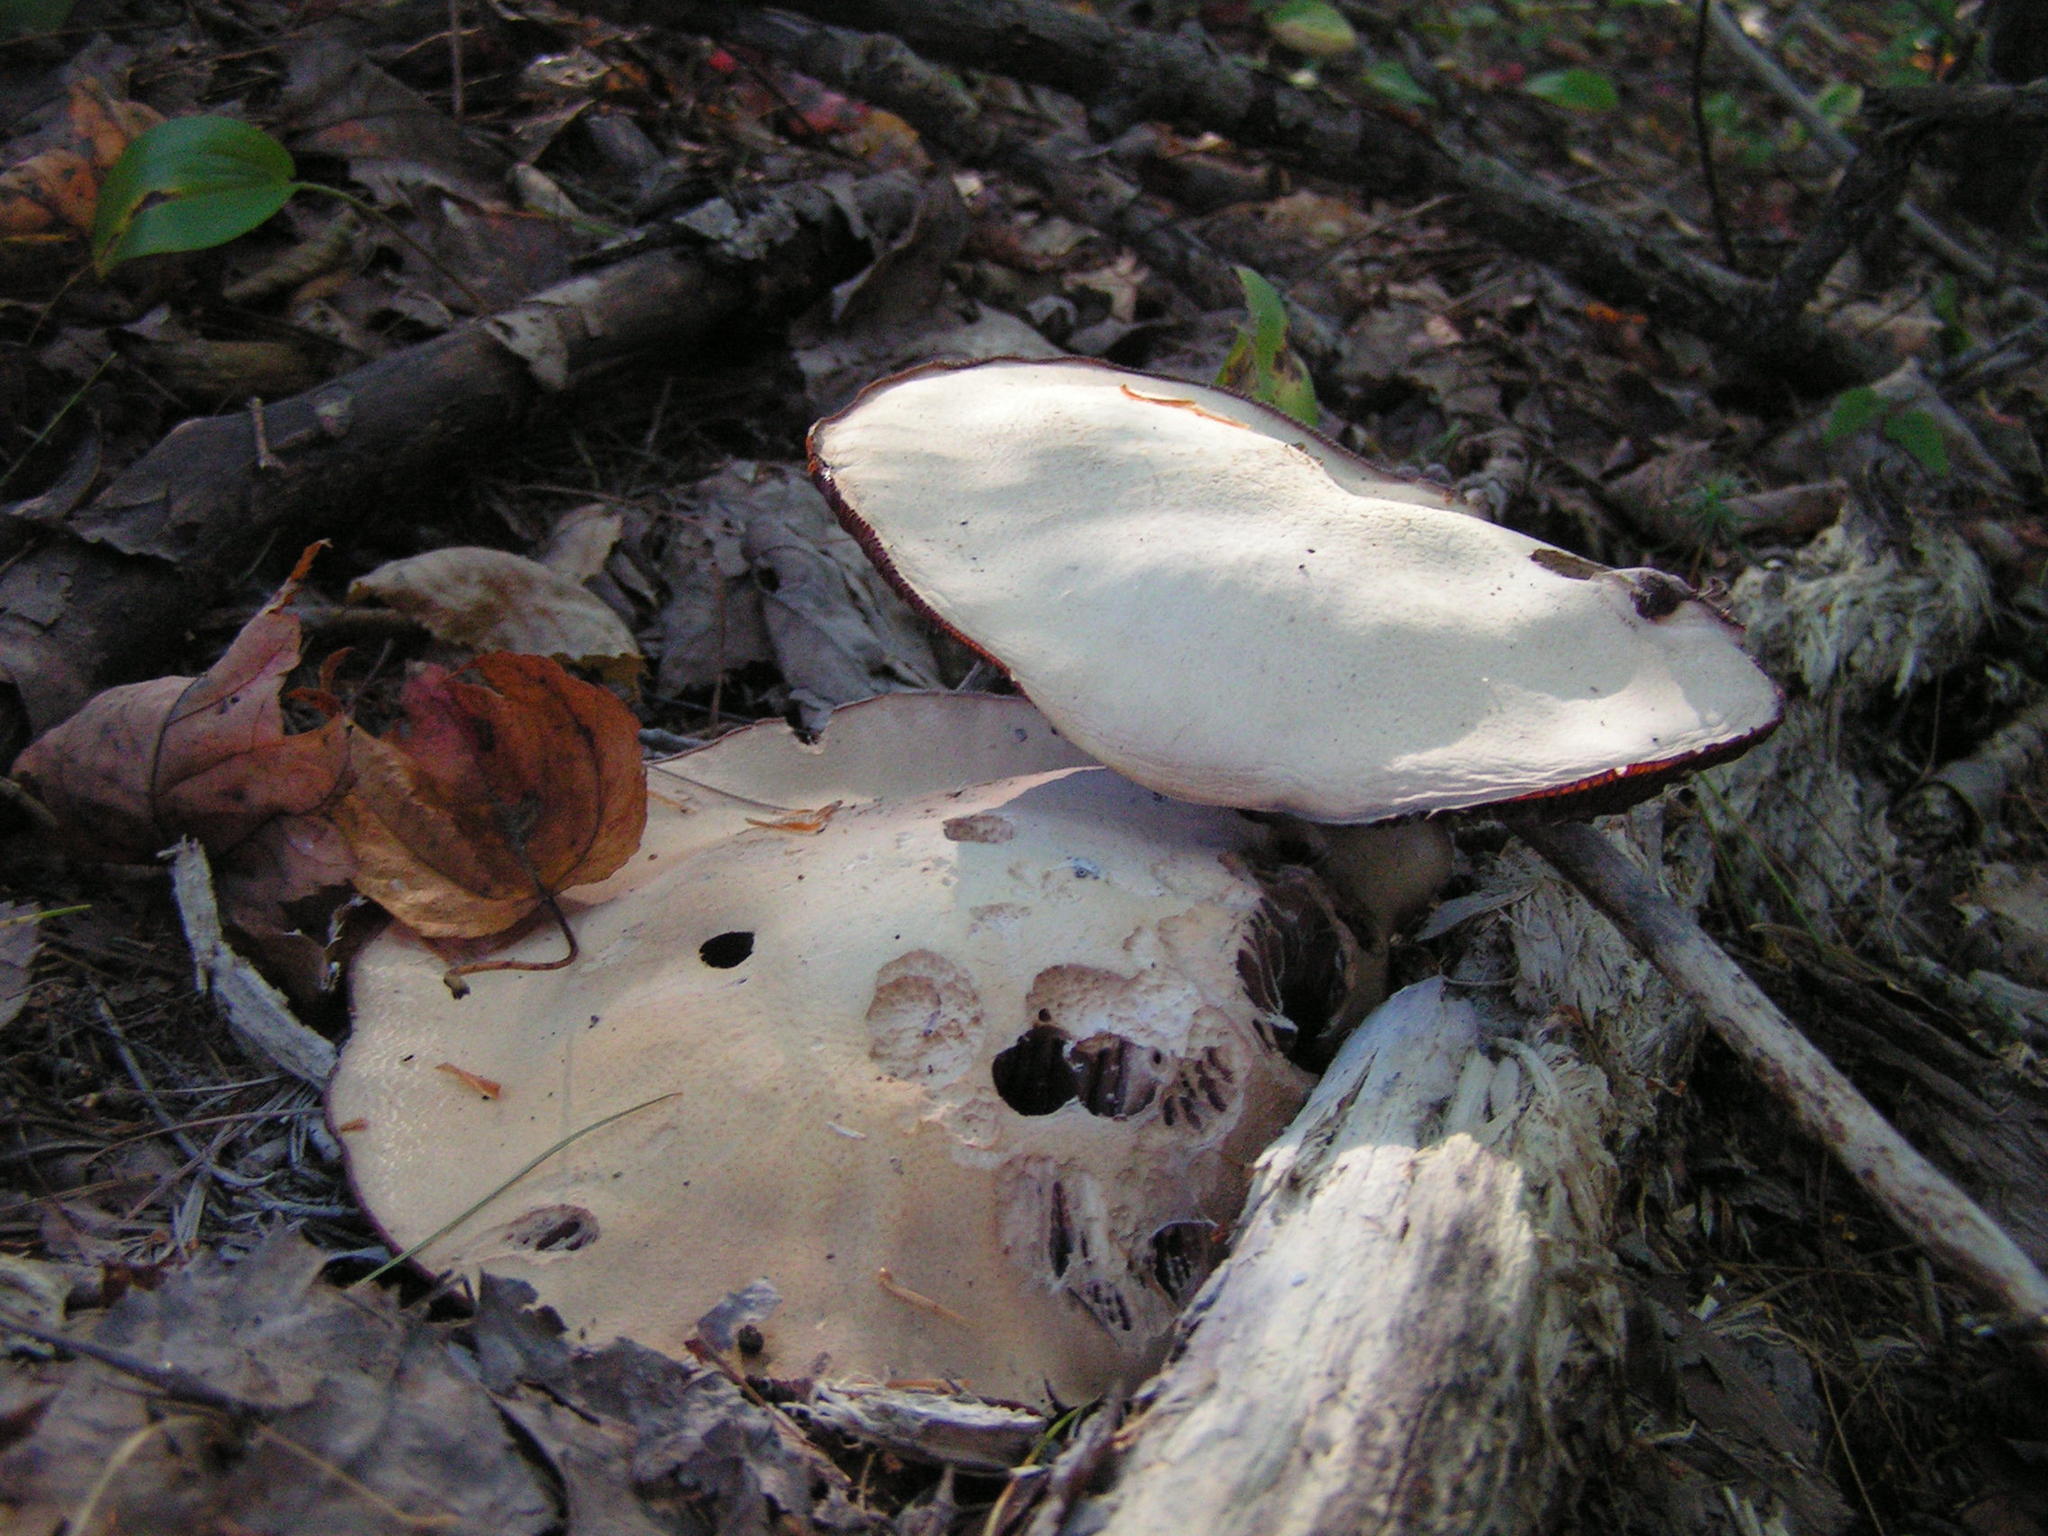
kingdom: Fungi
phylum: Basidiomycota
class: Agaricomycetes
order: Agaricales
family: Hydnangiaceae
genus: Laccaria
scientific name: Laccaria ochropurpurea
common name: Purple laccaria
